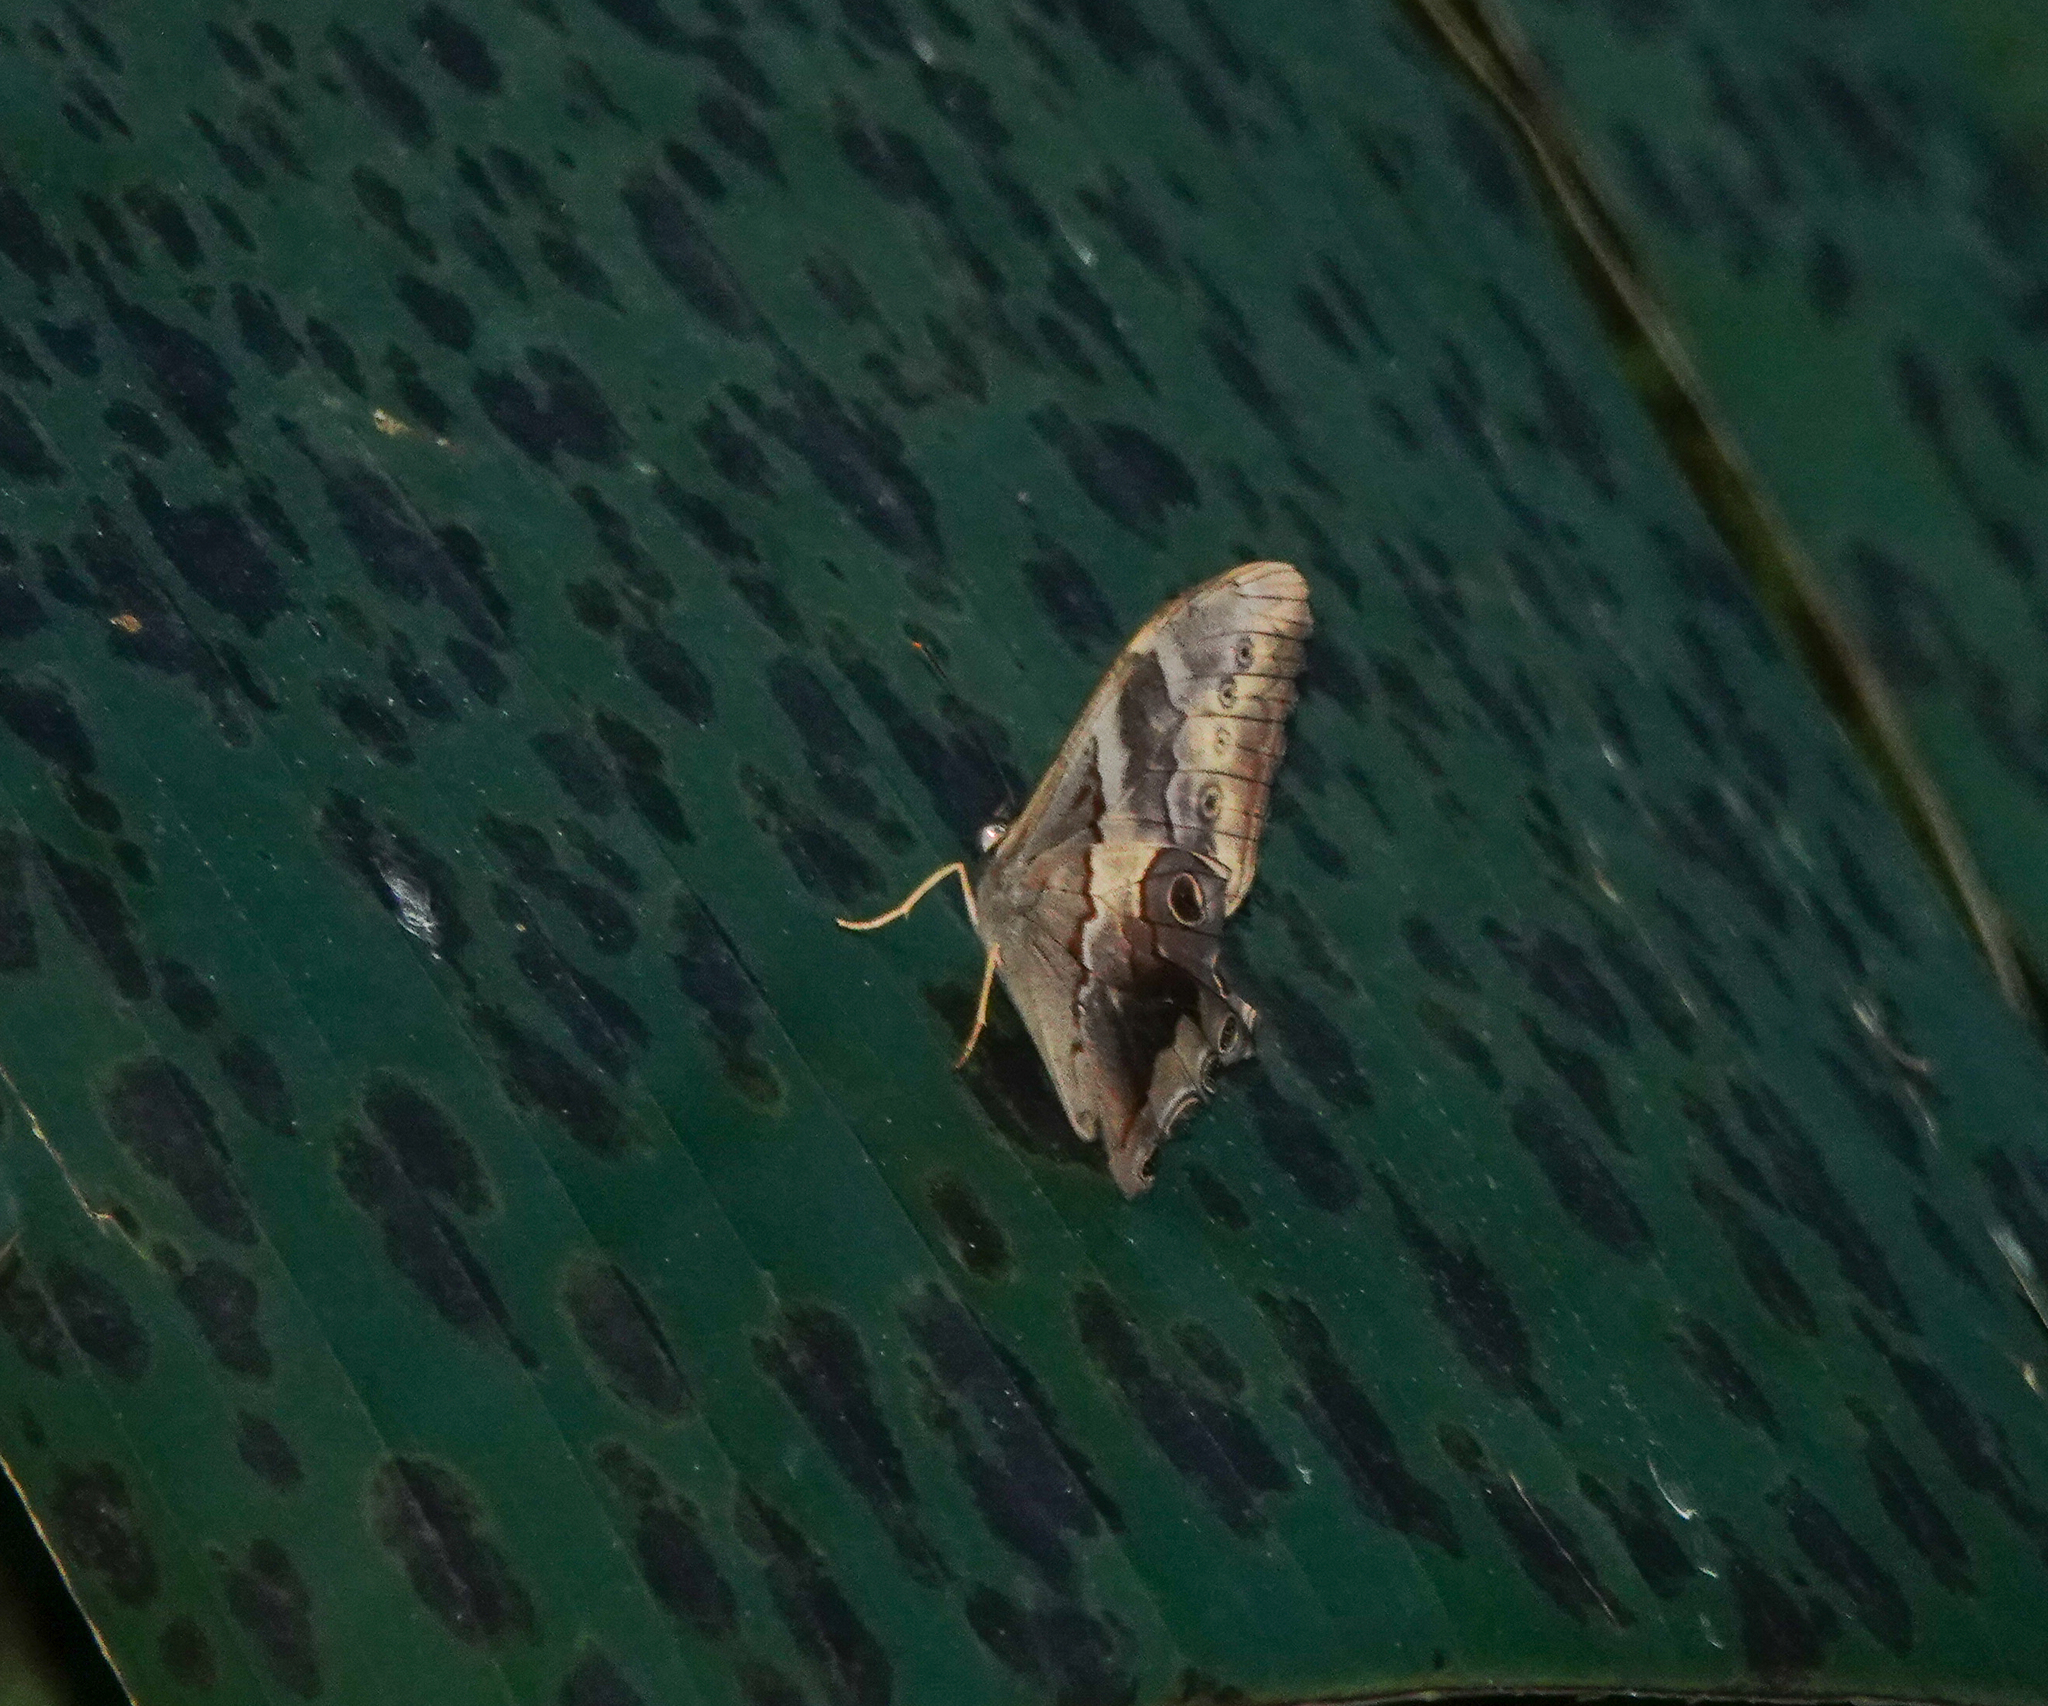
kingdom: Animalia
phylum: Arthropoda
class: Insecta
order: Lepidoptera
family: Nymphalidae
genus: Lethe
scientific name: Lethe chandica
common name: Angled red forester
